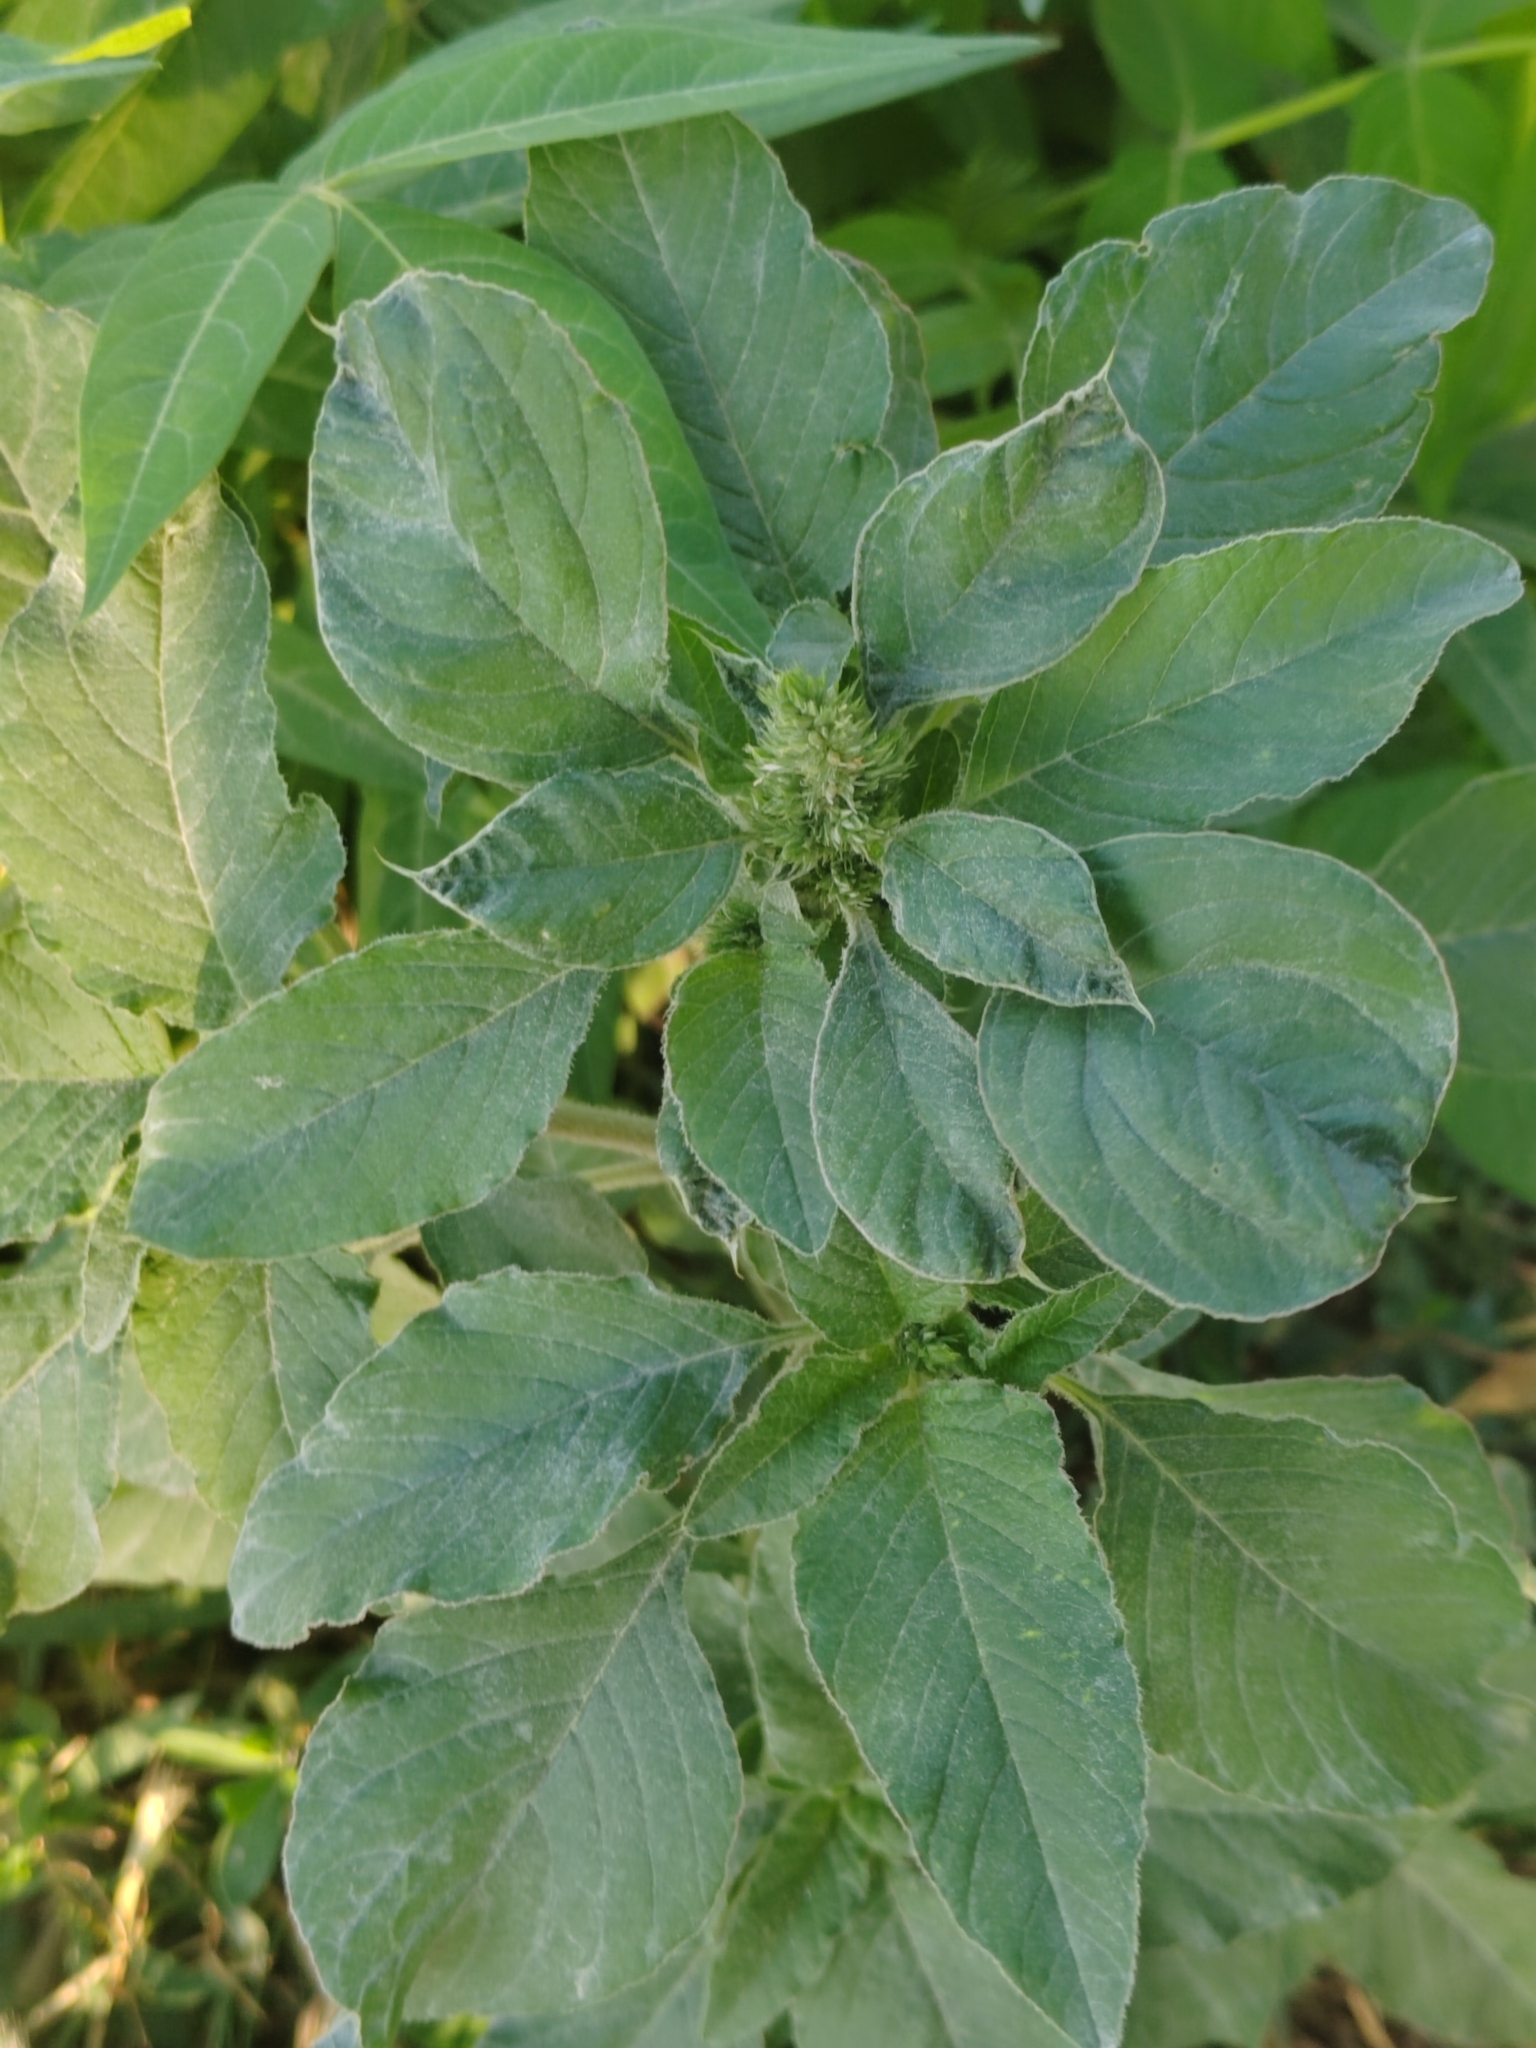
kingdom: Plantae
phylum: Tracheophyta
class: Magnoliopsida
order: Caryophyllales
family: Amaranthaceae
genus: Amaranthus
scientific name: Amaranthus retroflexus
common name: Redroot amaranth
